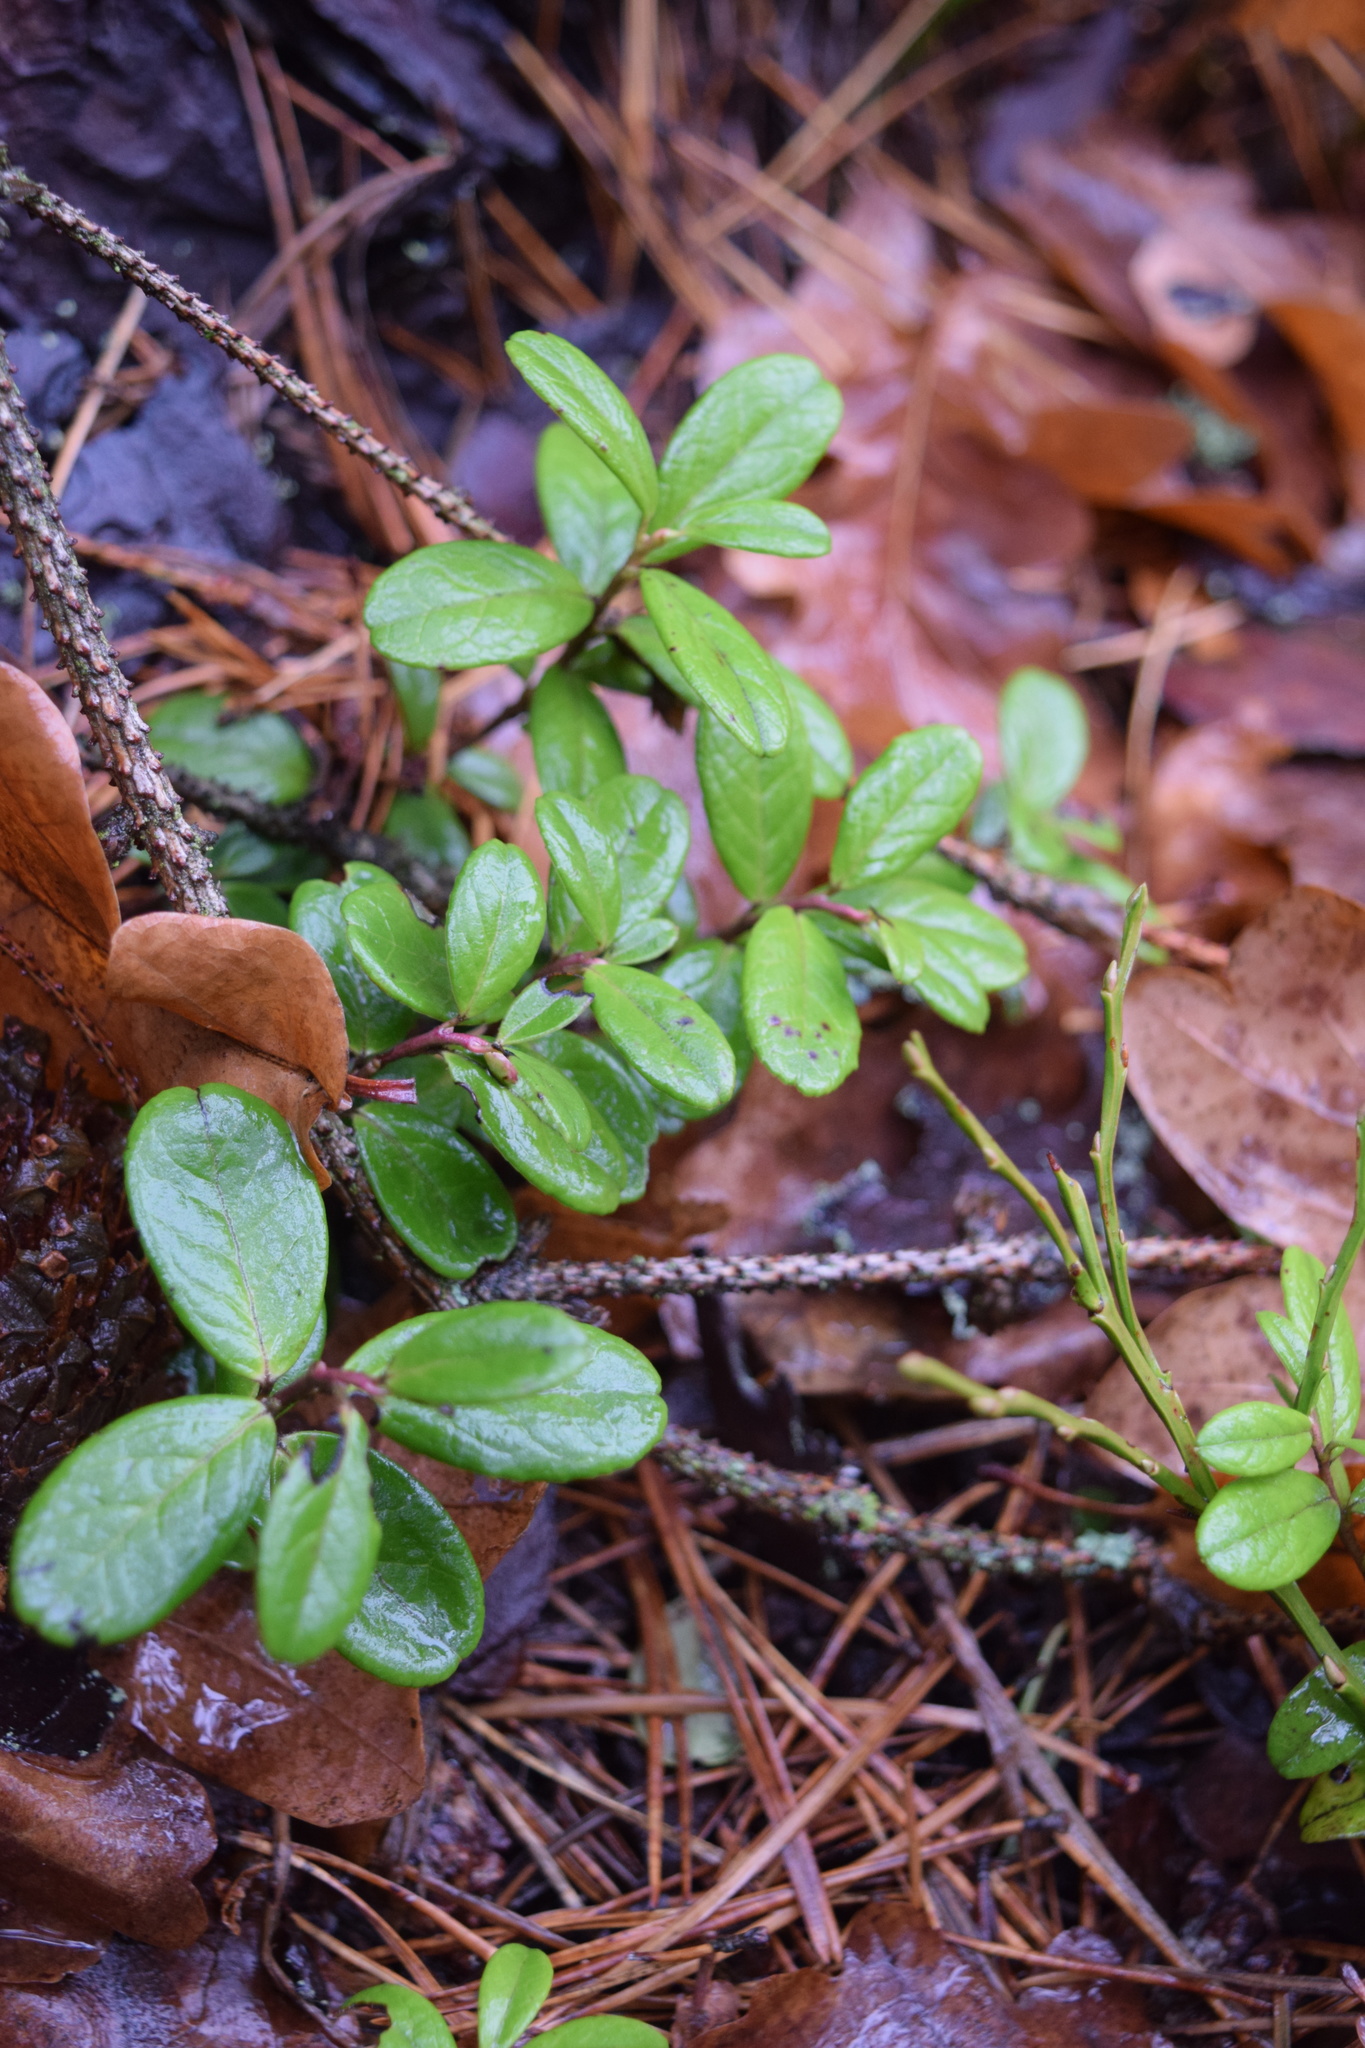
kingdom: Plantae
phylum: Tracheophyta
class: Magnoliopsida
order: Ericales
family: Ericaceae
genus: Vaccinium
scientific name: Vaccinium vitis-idaea
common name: Cowberry
